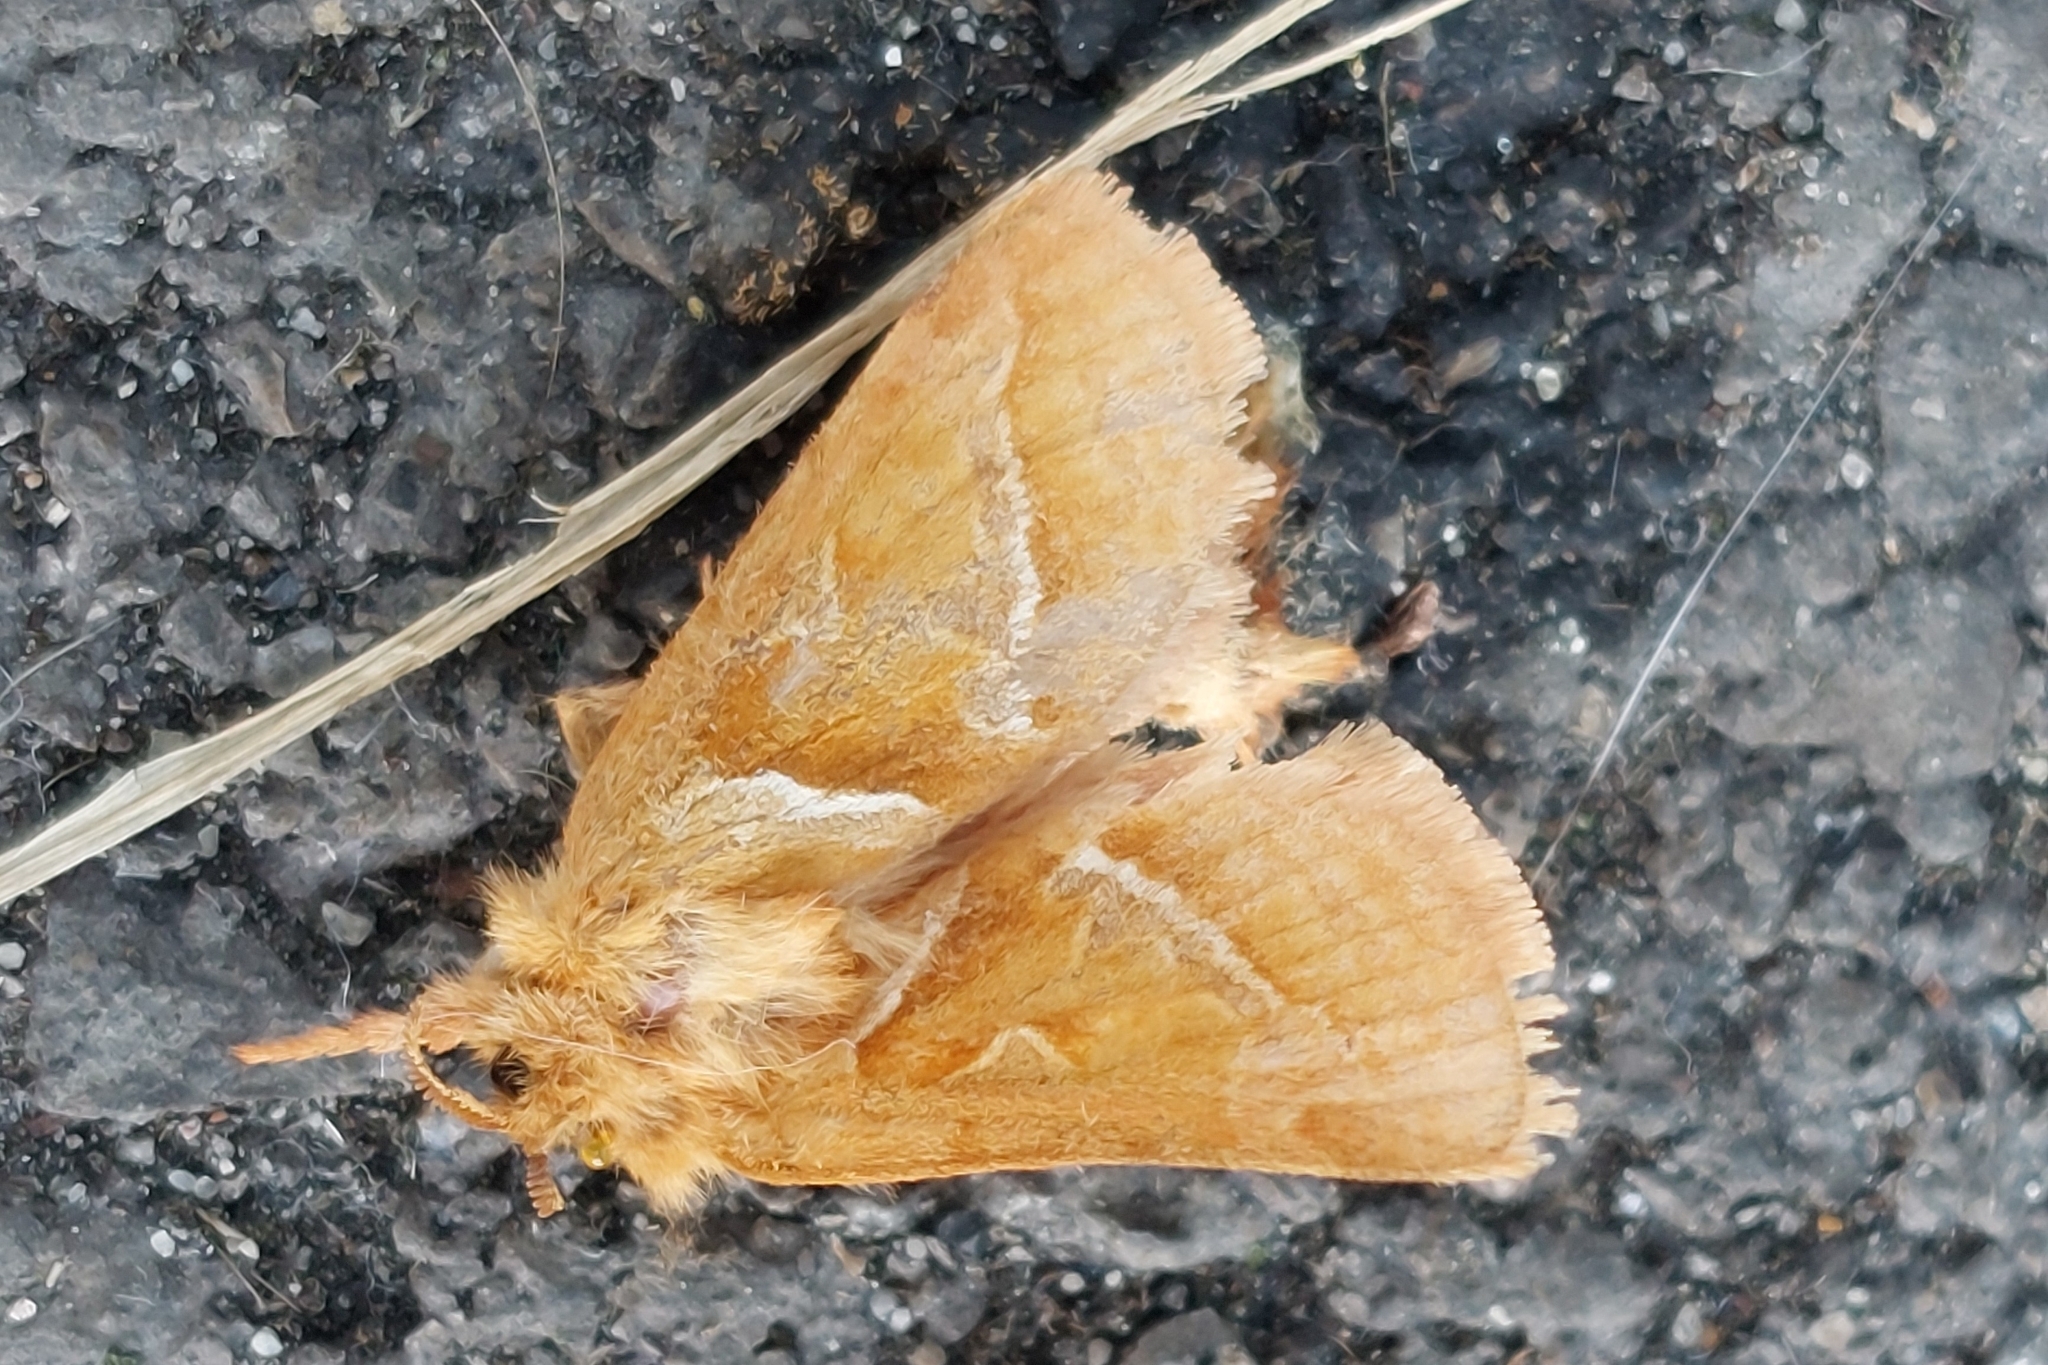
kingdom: Animalia
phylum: Arthropoda
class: Insecta
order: Lepidoptera
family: Hepialidae
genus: Triodia
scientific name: Triodia sylvina
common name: Orange swift
